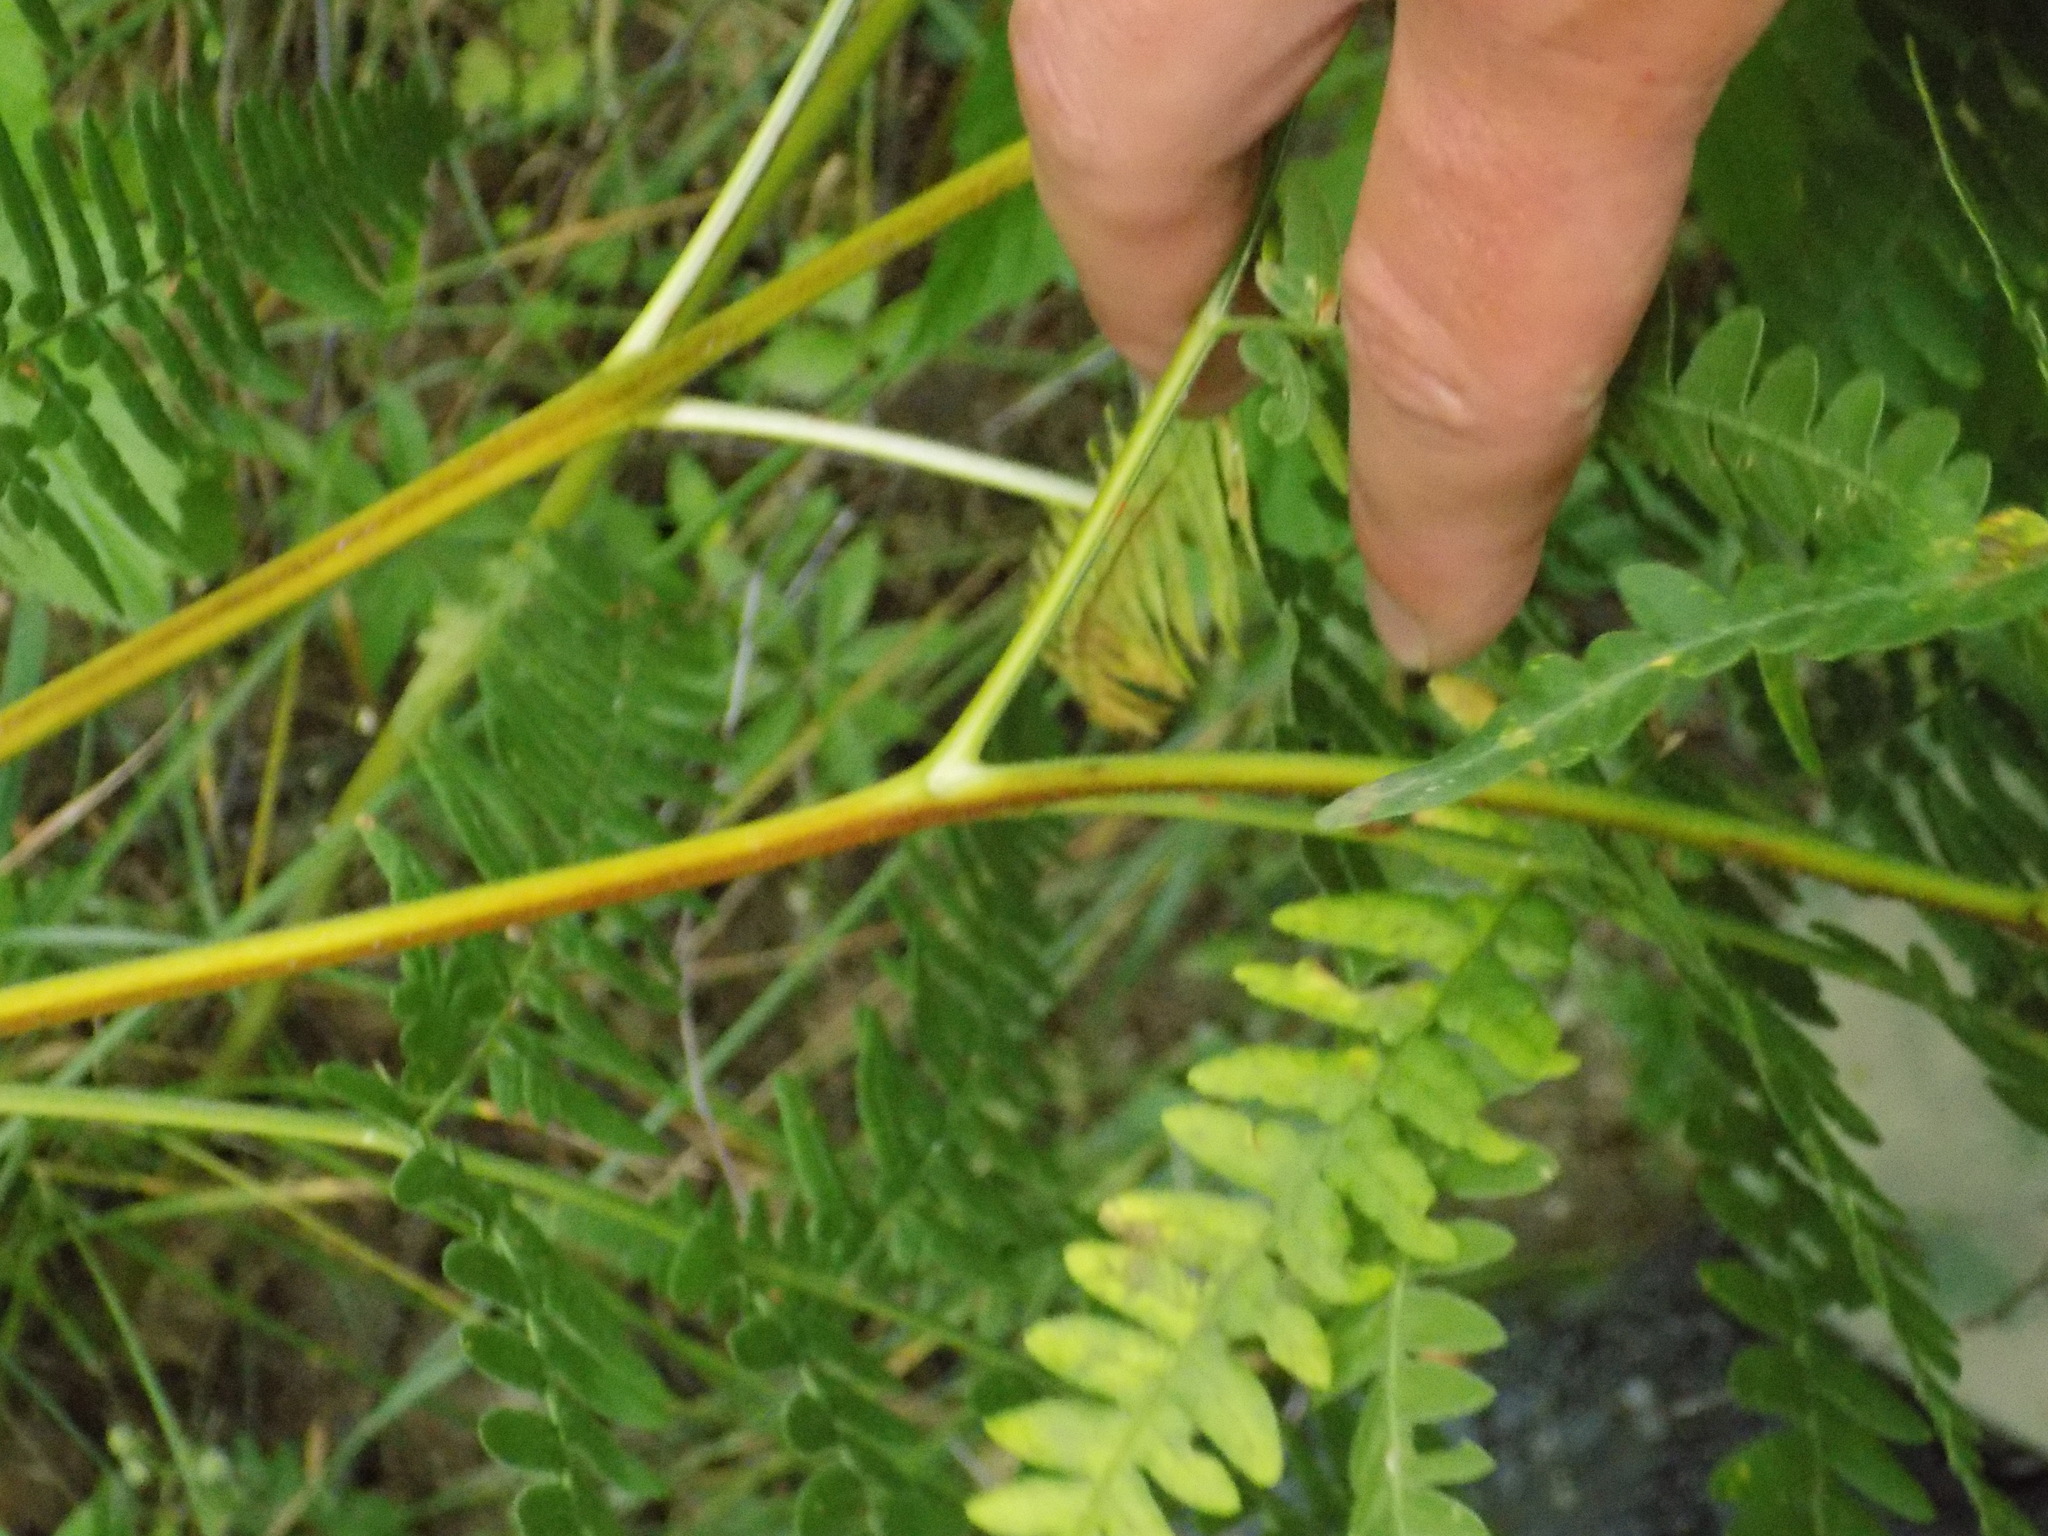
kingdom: Plantae
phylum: Tracheophyta
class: Polypodiopsida
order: Polypodiales
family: Dennstaedtiaceae
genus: Pteridium
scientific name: Pteridium aquilinum
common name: Bracken
